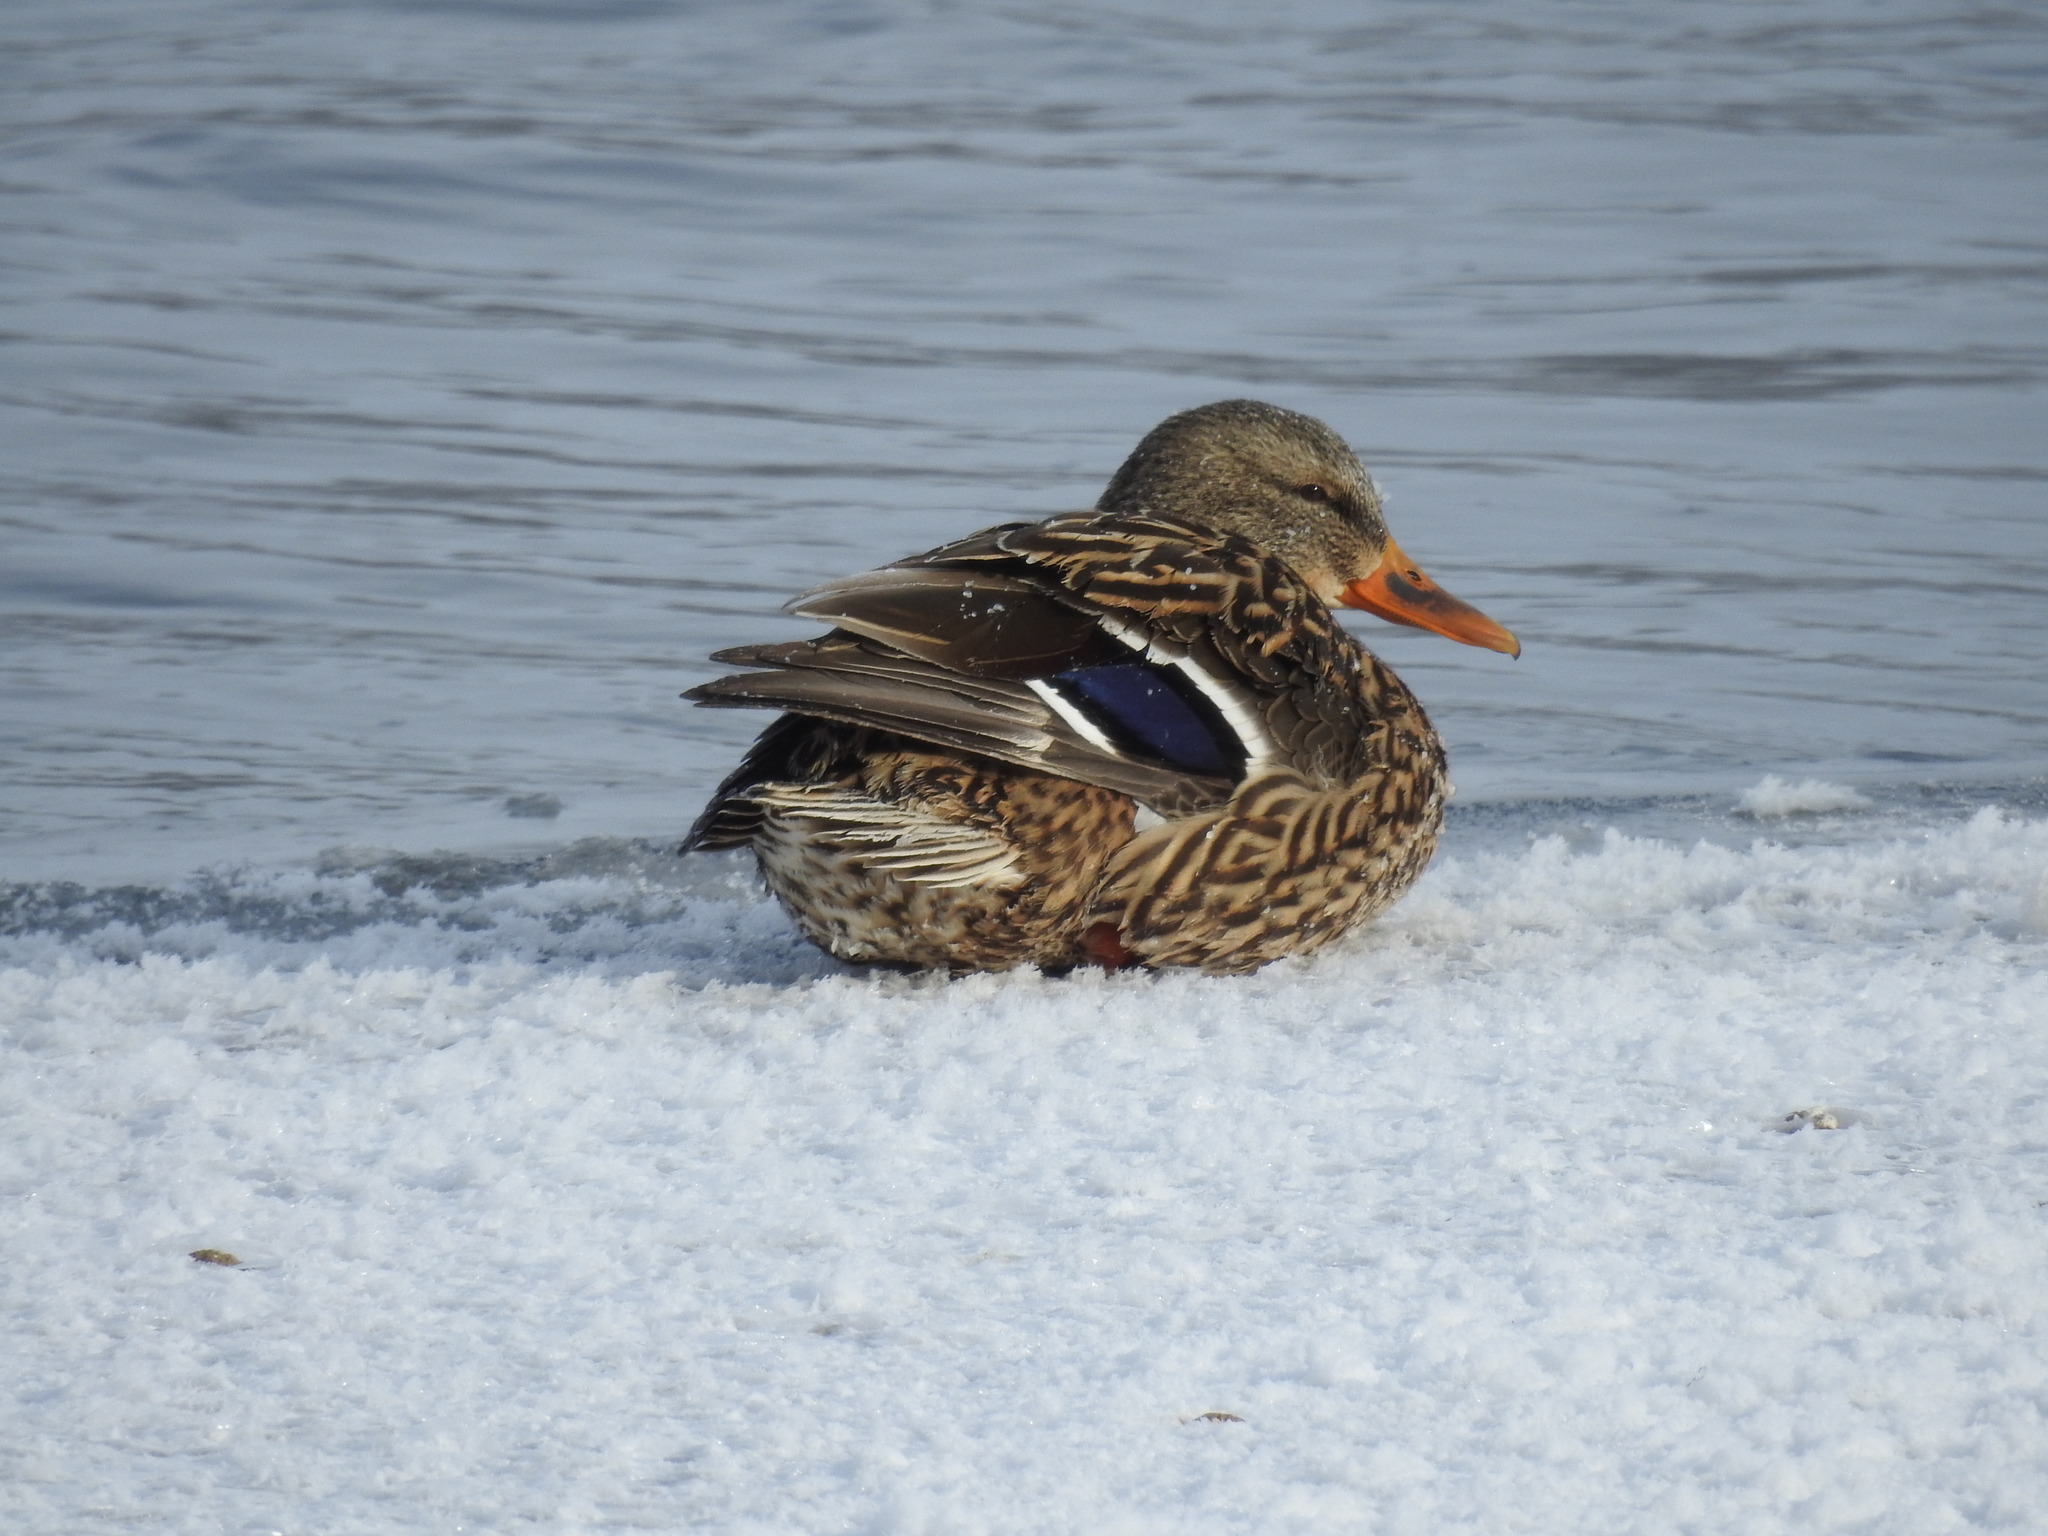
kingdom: Animalia
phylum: Chordata
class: Aves
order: Anseriformes
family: Anatidae
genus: Anas
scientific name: Anas platyrhynchos
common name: Mallard
